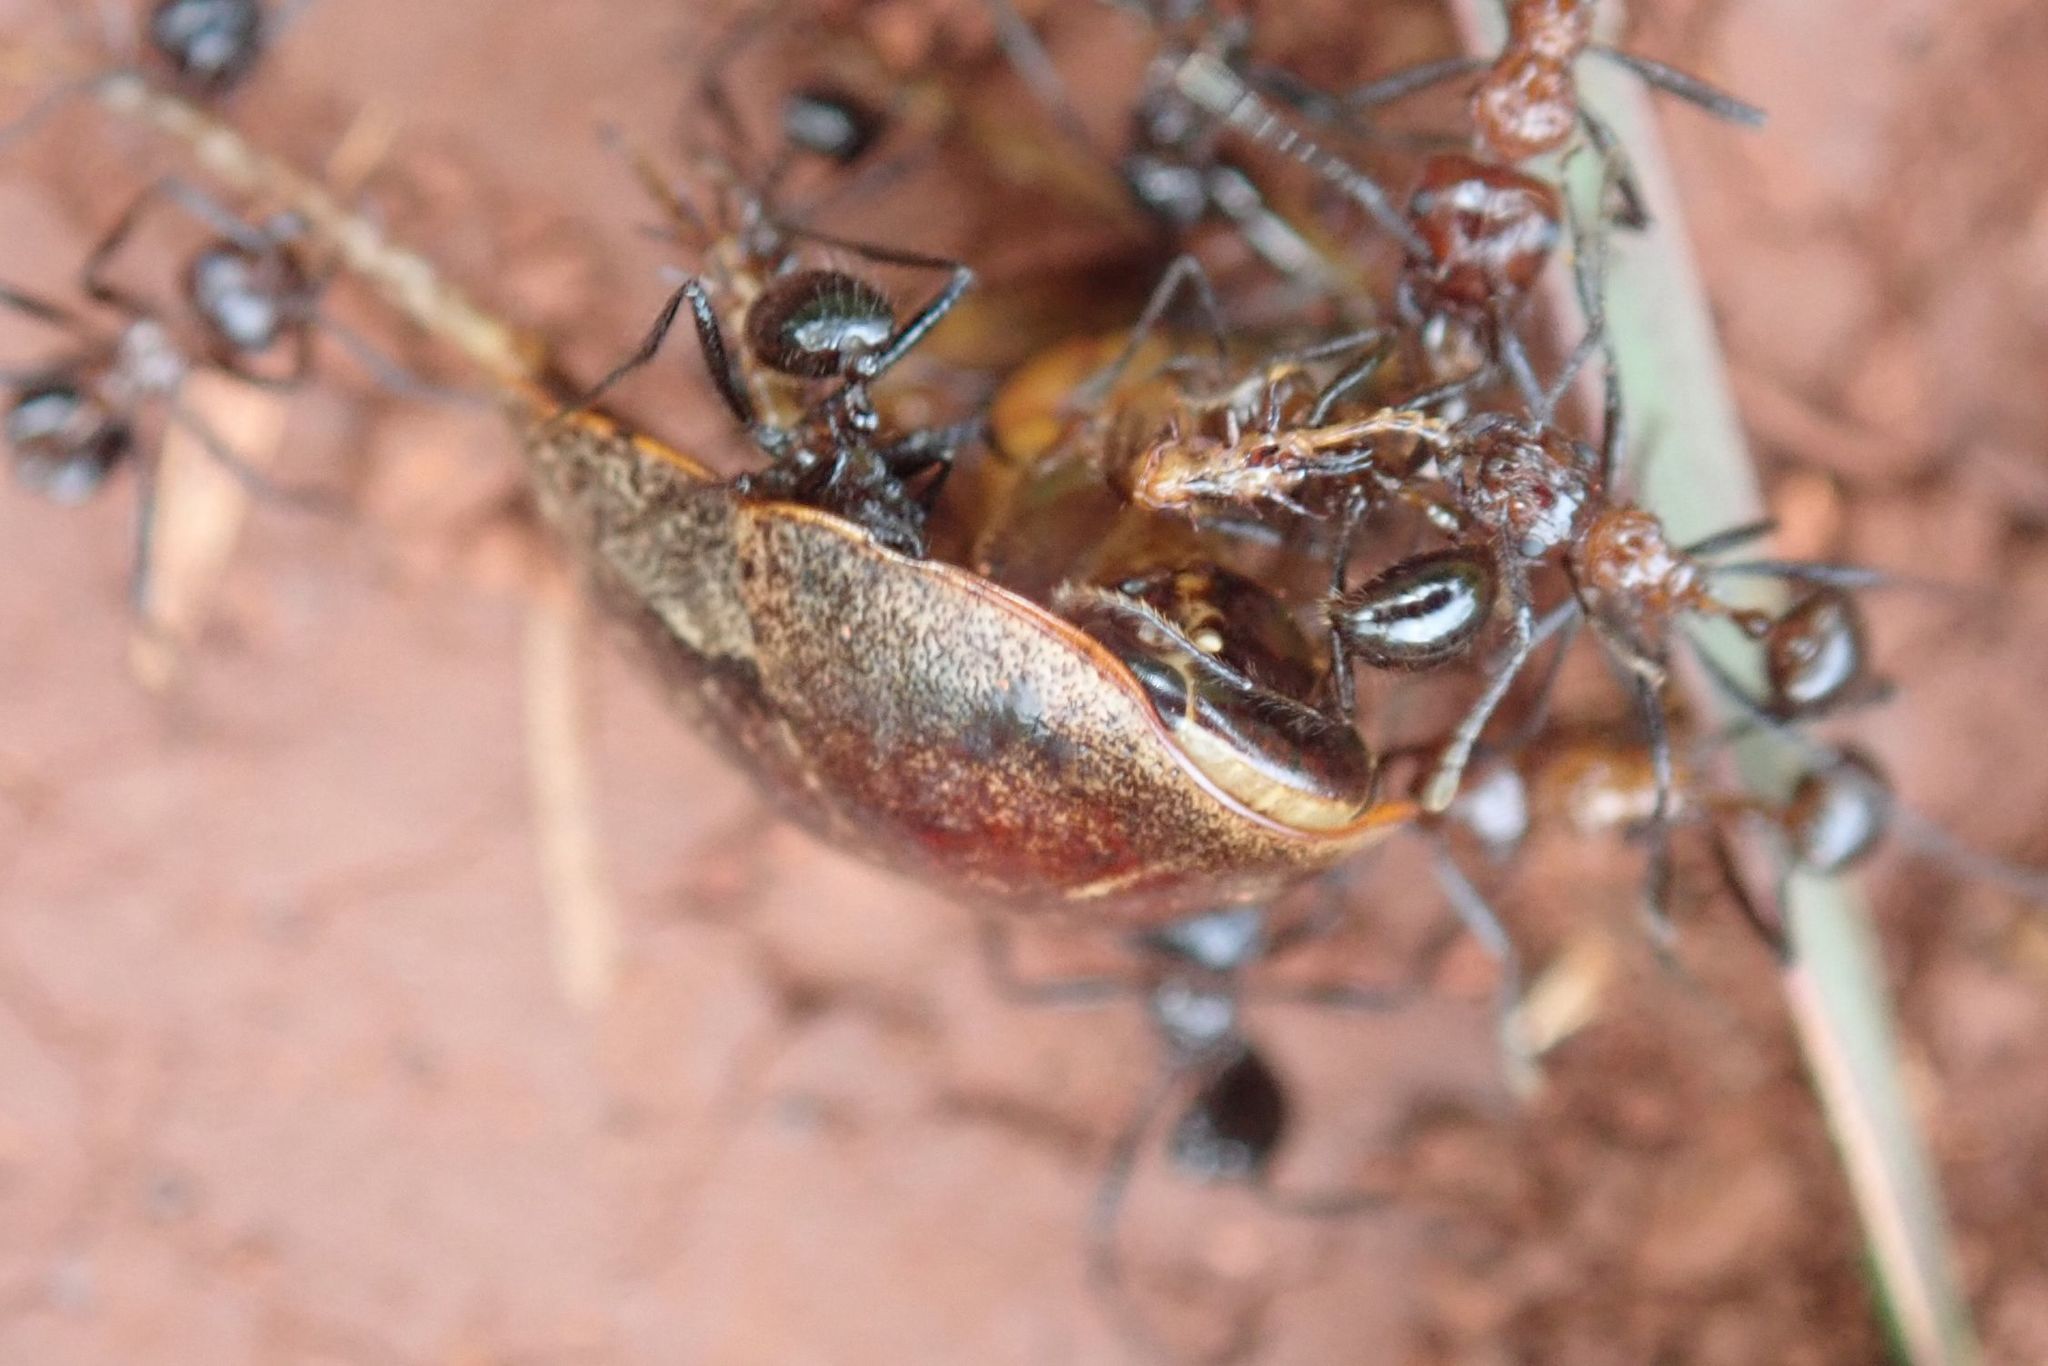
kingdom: Animalia
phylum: Arthropoda
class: Insecta
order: Hymenoptera
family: Formicidae
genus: Myrmicaria
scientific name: Myrmicaria natalensis
